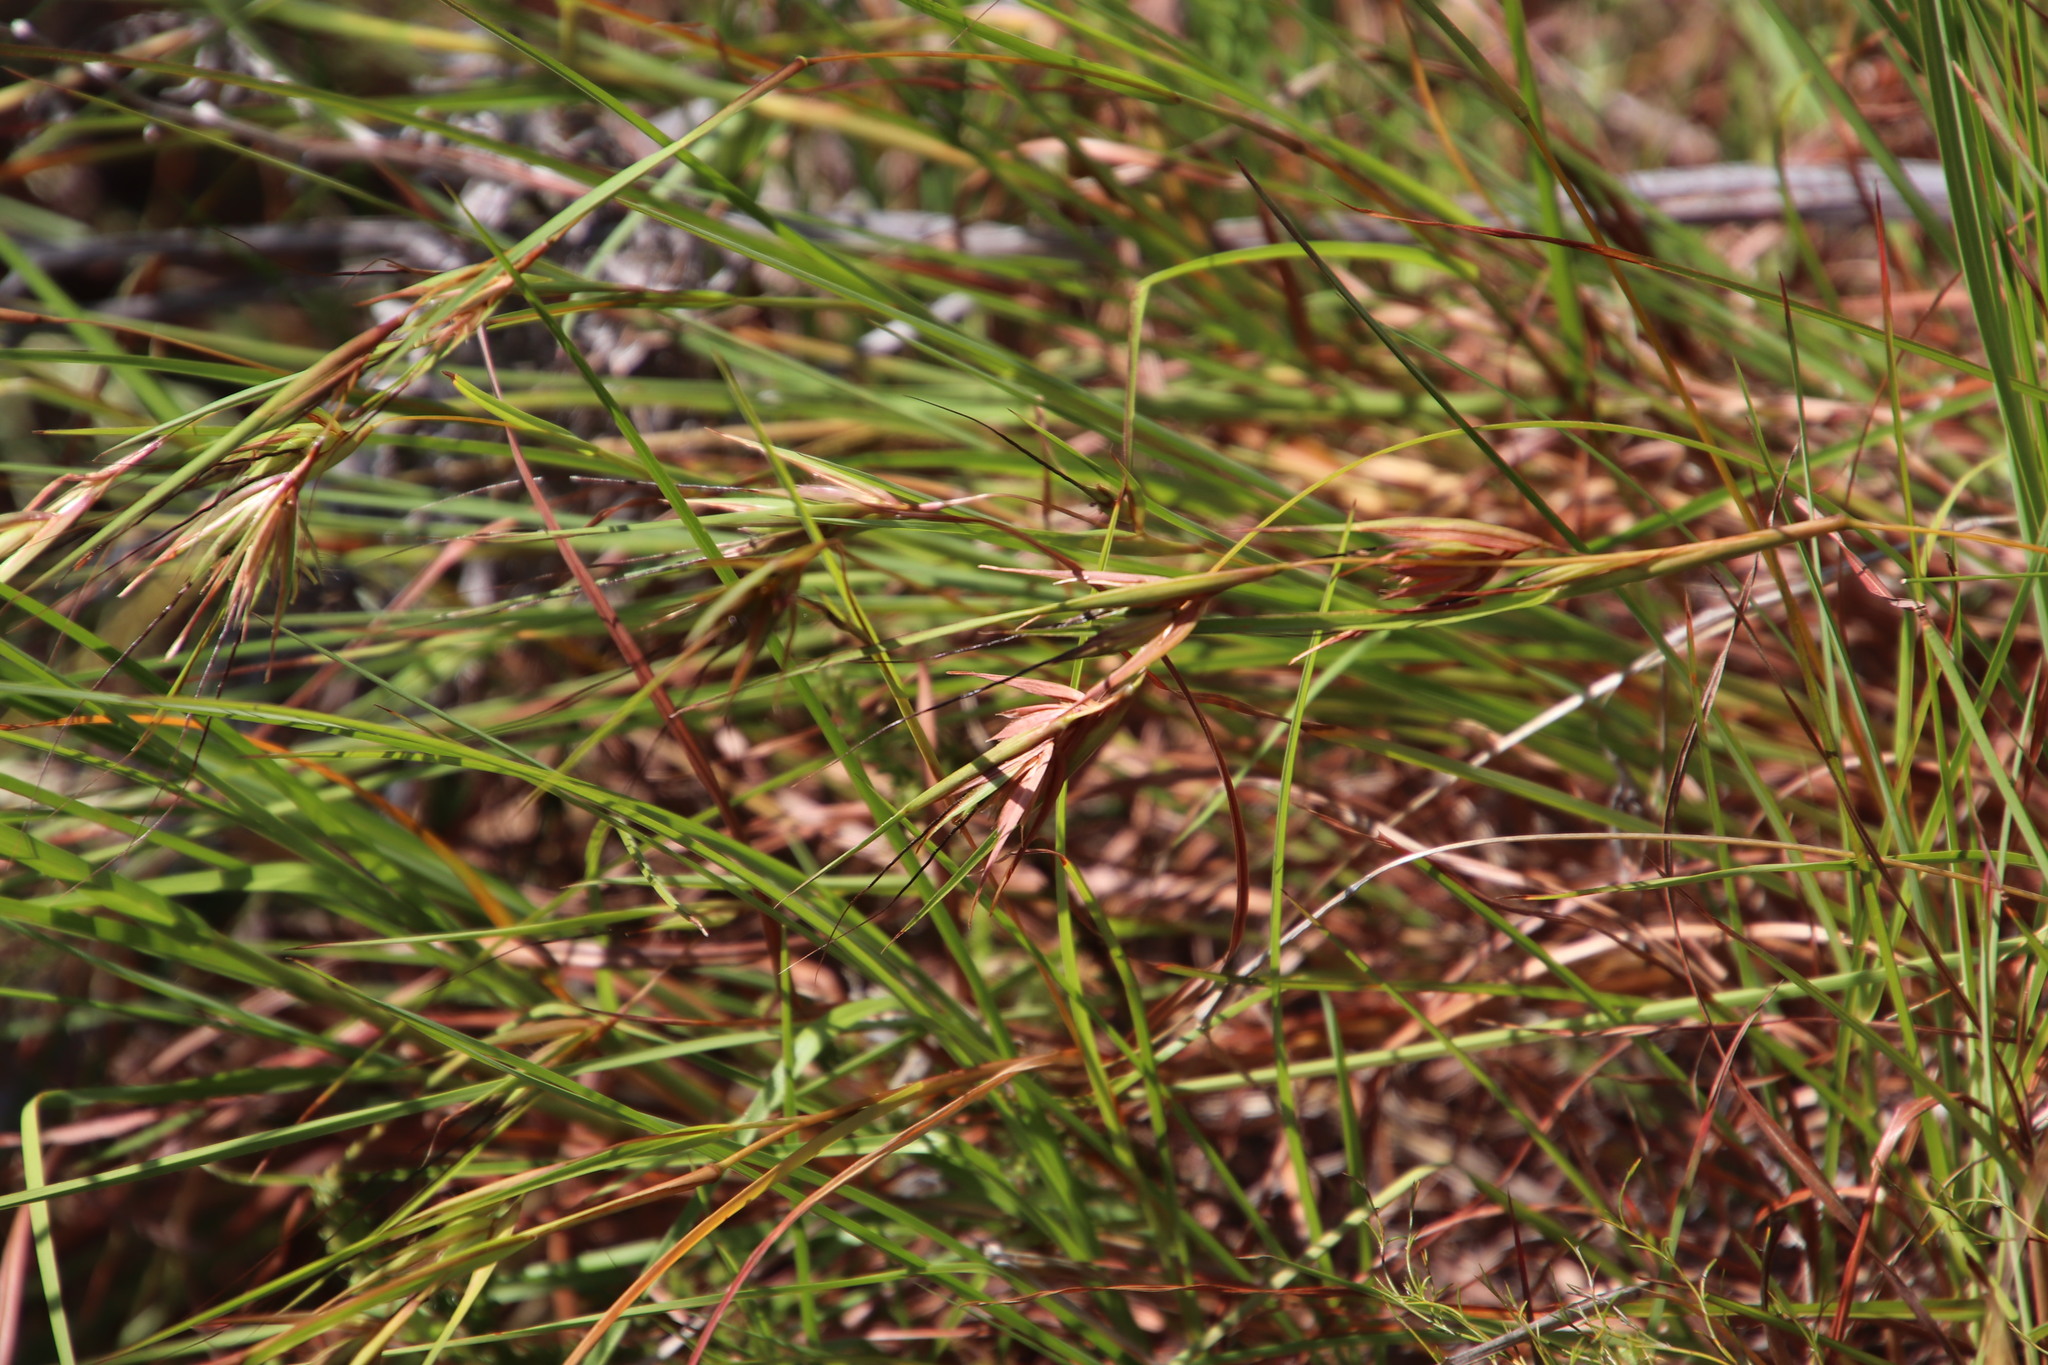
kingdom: Plantae
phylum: Tracheophyta
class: Liliopsida
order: Poales
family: Poaceae
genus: Themeda
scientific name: Themeda triandra
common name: Kangaroo grass
